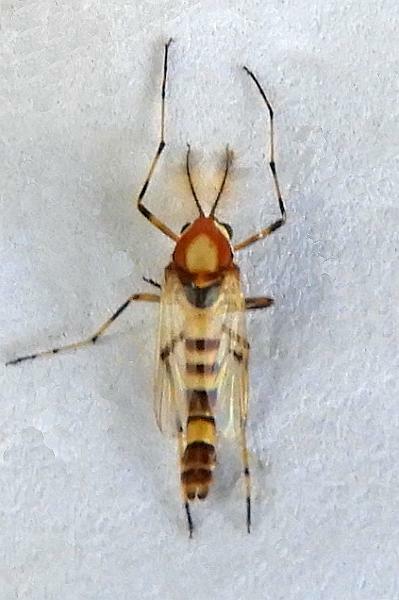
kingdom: Animalia
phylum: Arthropoda
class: Insecta
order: Diptera
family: Chironomidae
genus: Coelotanypus
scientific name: Coelotanypus tricolor
